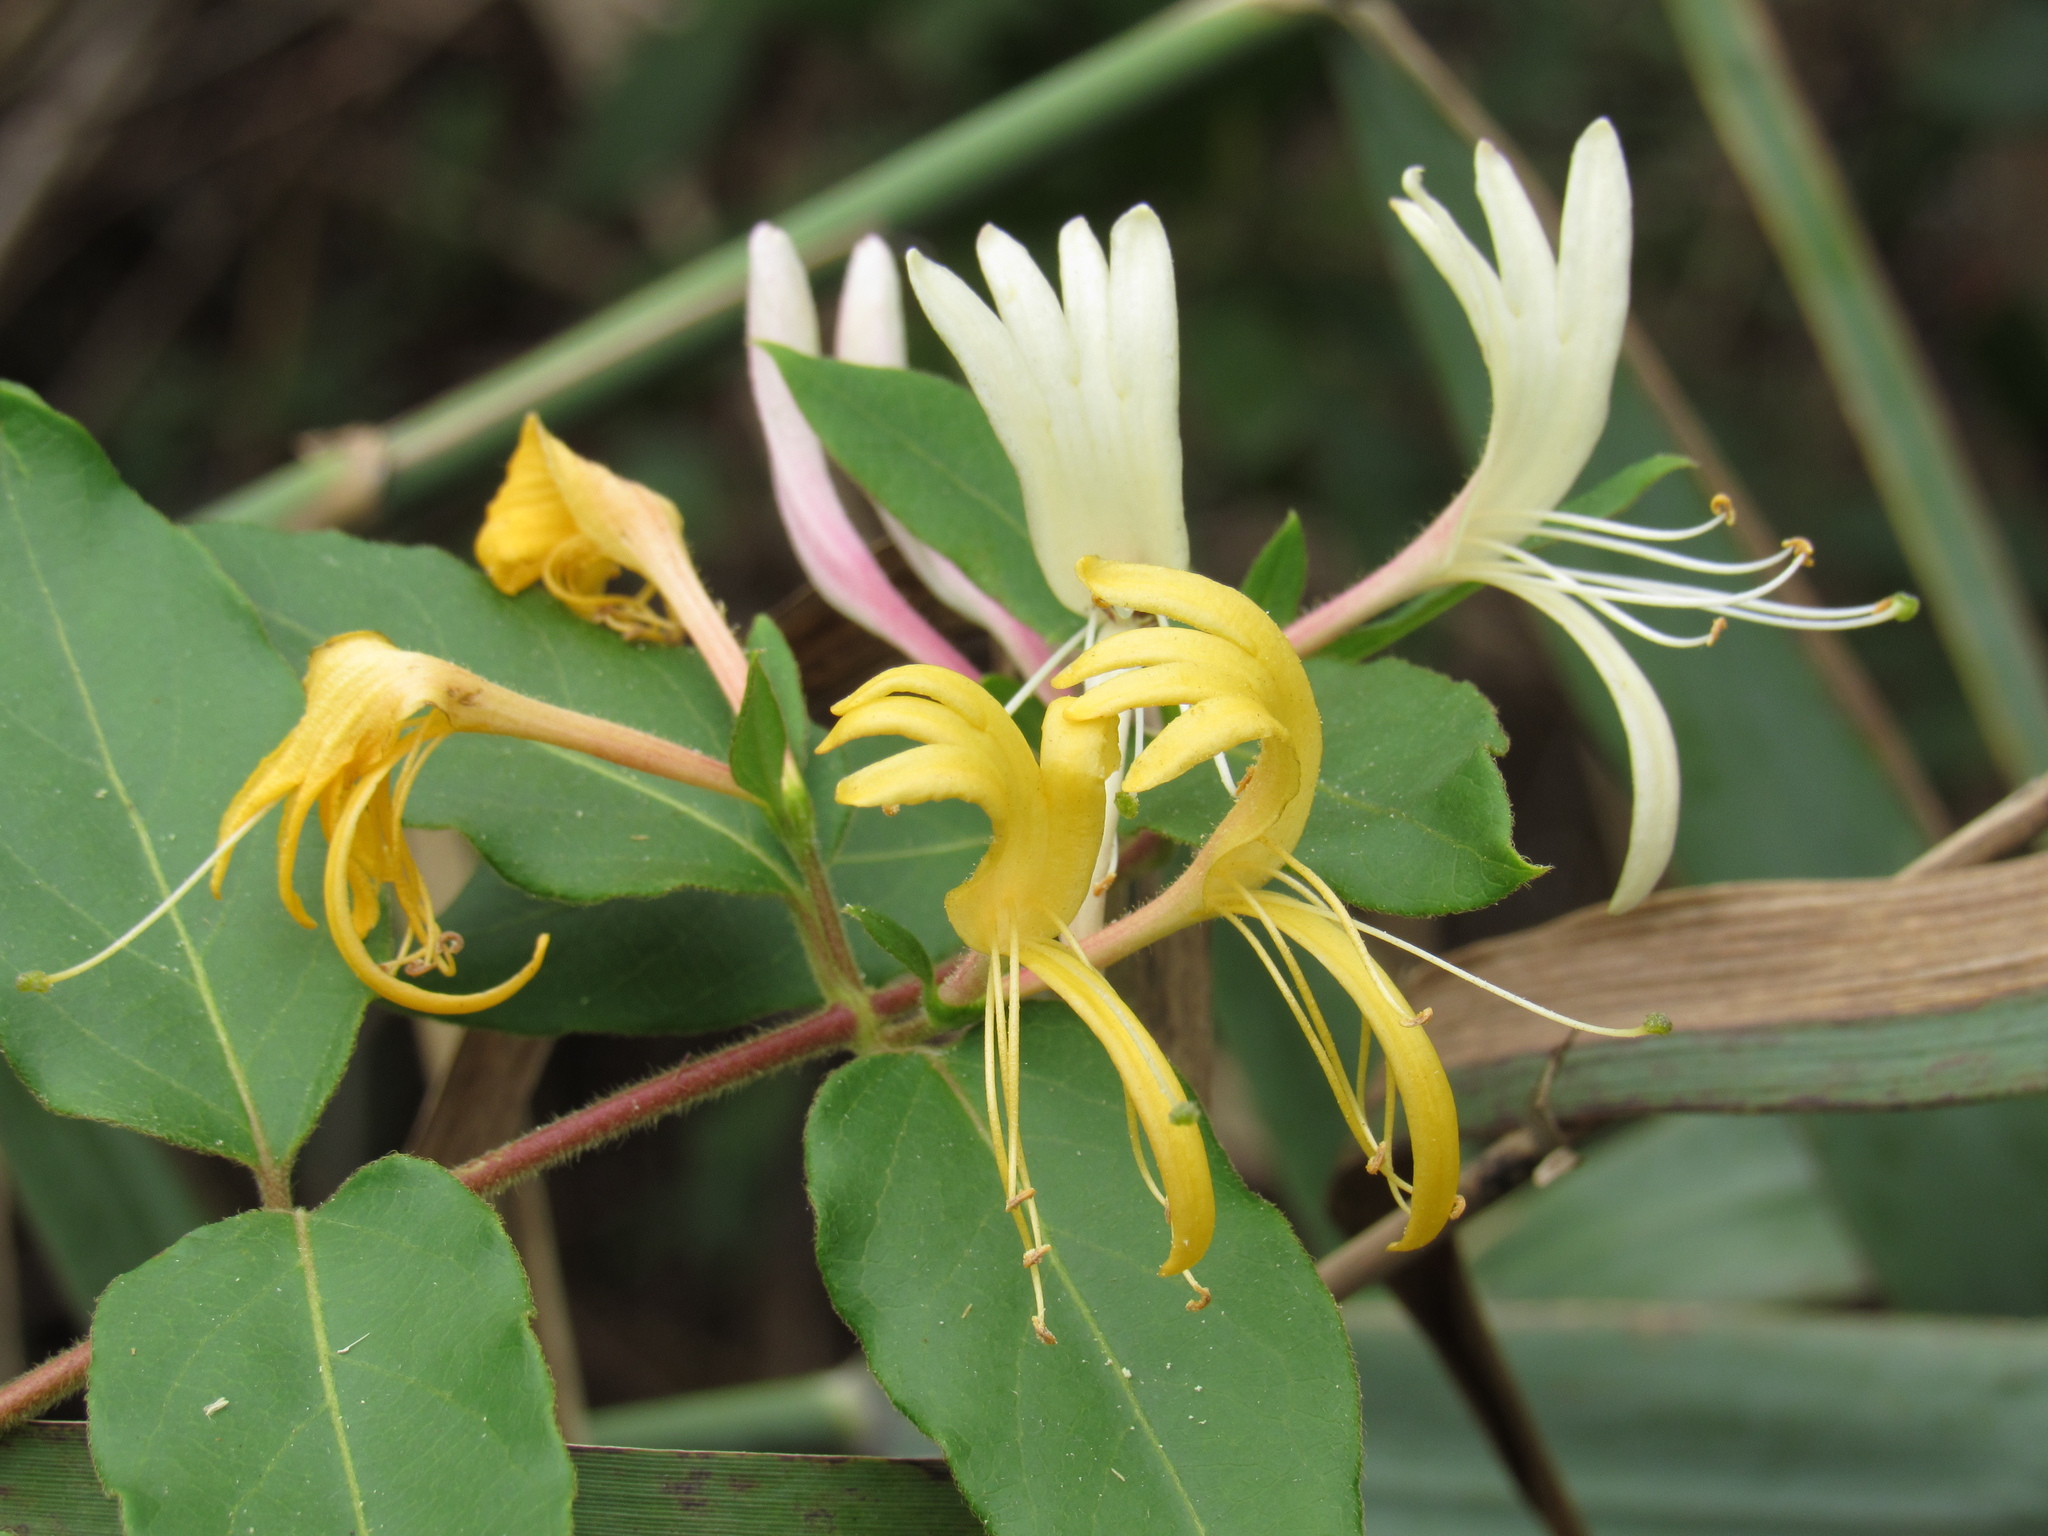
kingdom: Plantae
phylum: Tracheophyta
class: Magnoliopsida
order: Dipsacales
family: Caprifoliaceae
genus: Lonicera
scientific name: Lonicera japonica
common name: Japanese honeysuckle
